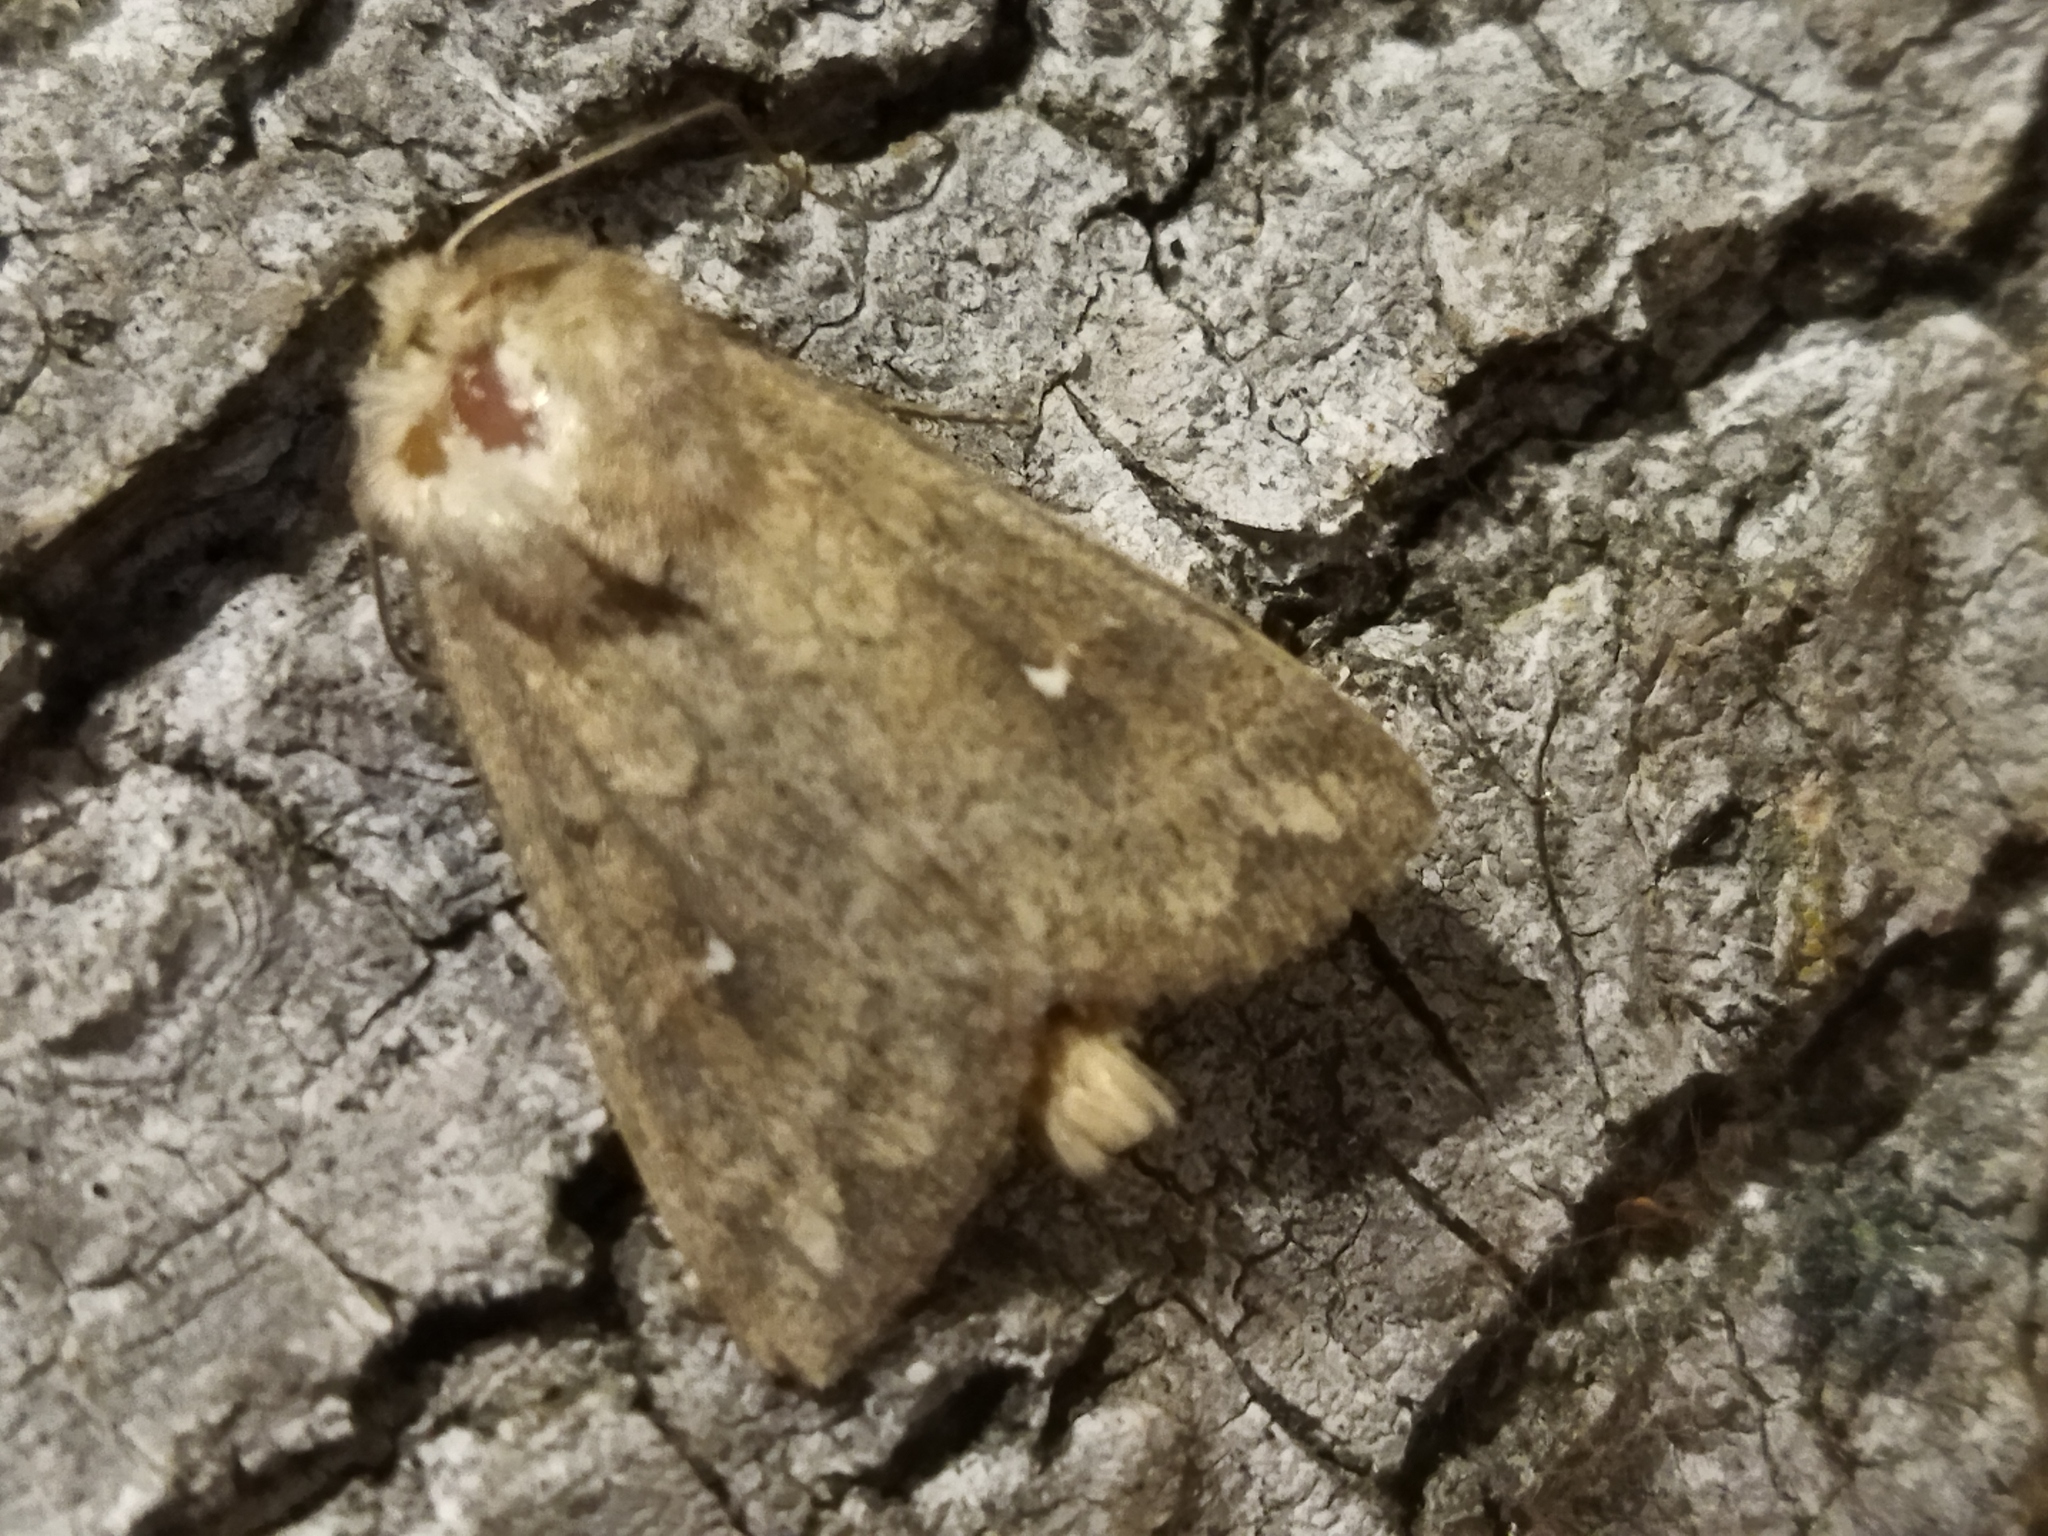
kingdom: Animalia
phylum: Arthropoda
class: Insecta
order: Lepidoptera
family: Noctuidae
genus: Mythimna
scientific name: Mythimna albipuncta
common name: White-point
